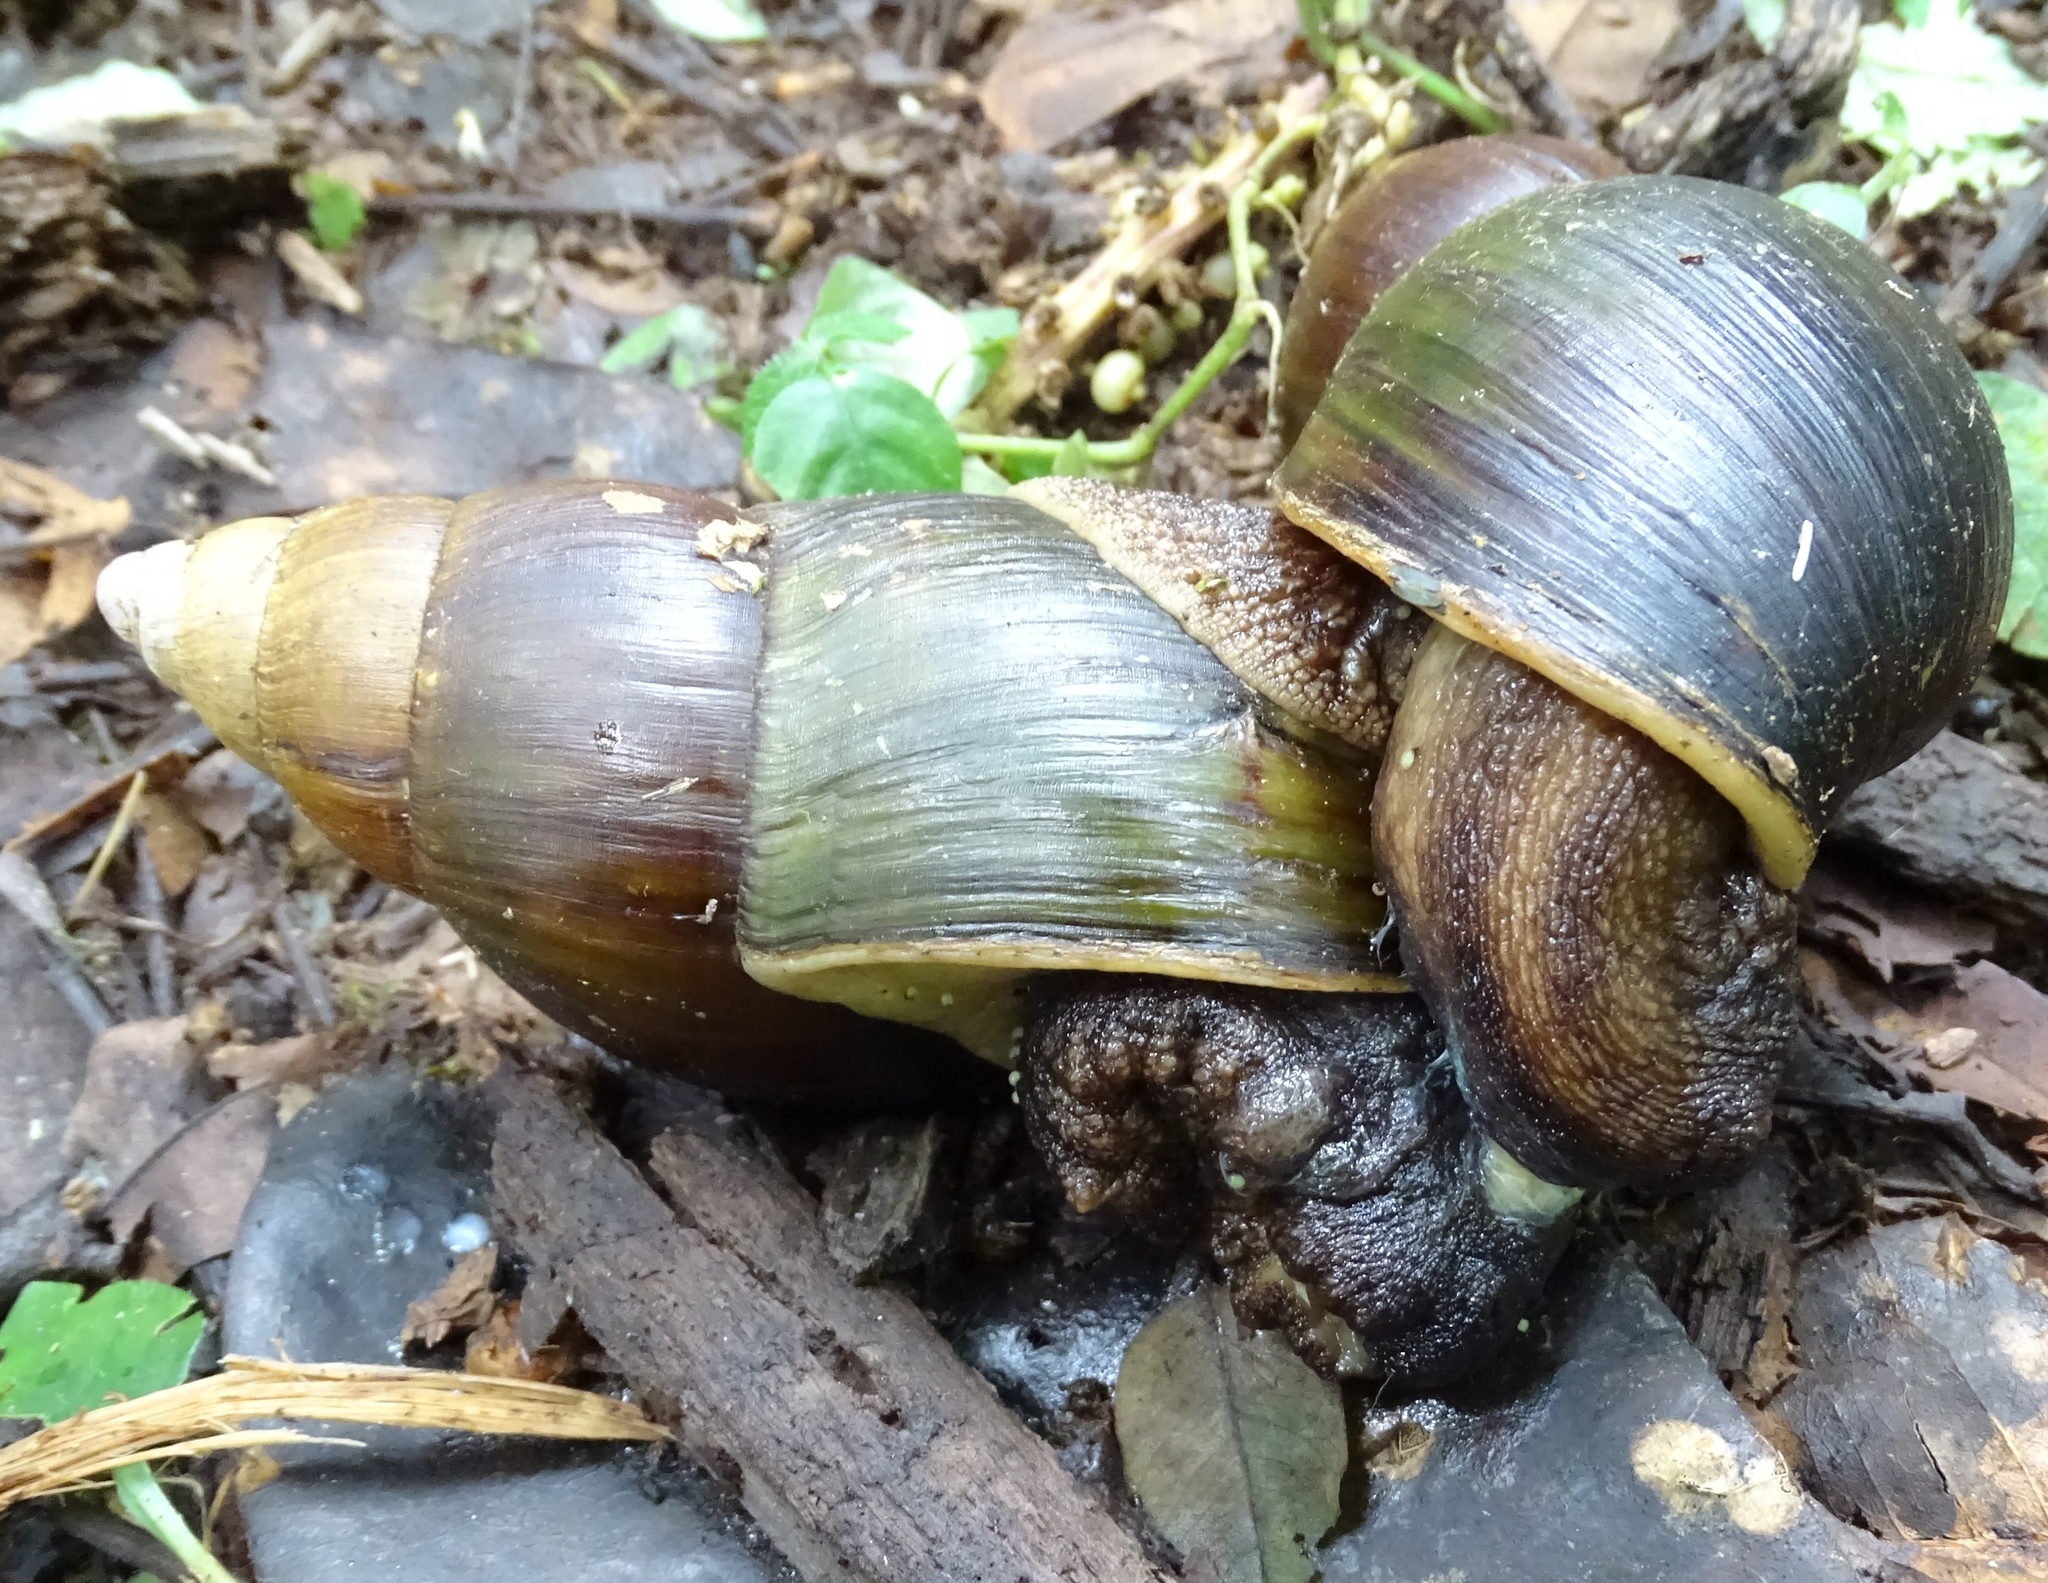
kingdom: Animalia
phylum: Mollusca
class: Gastropoda
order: Stylommatophora
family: Achatinidae
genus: Achatina
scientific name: Achatina stuhlmanni
